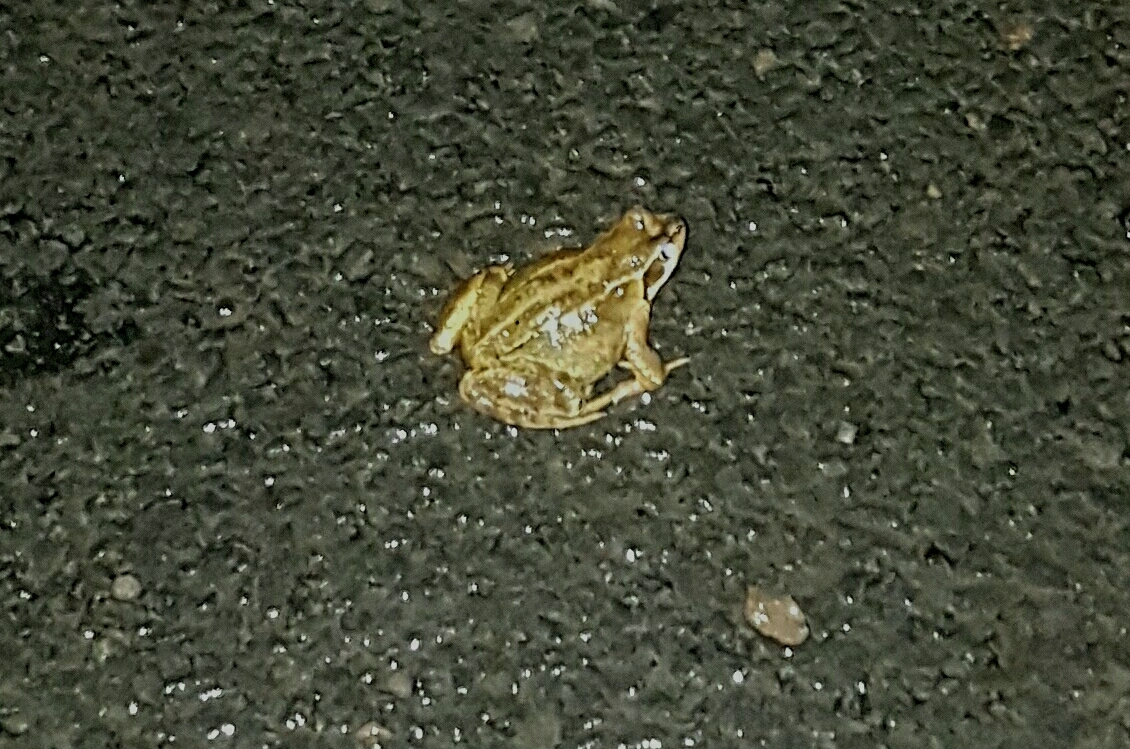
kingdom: Animalia
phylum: Chordata
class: Amphibia
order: Anura
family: Ranidae
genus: Rana
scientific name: Rana temporaria
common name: Common frog
